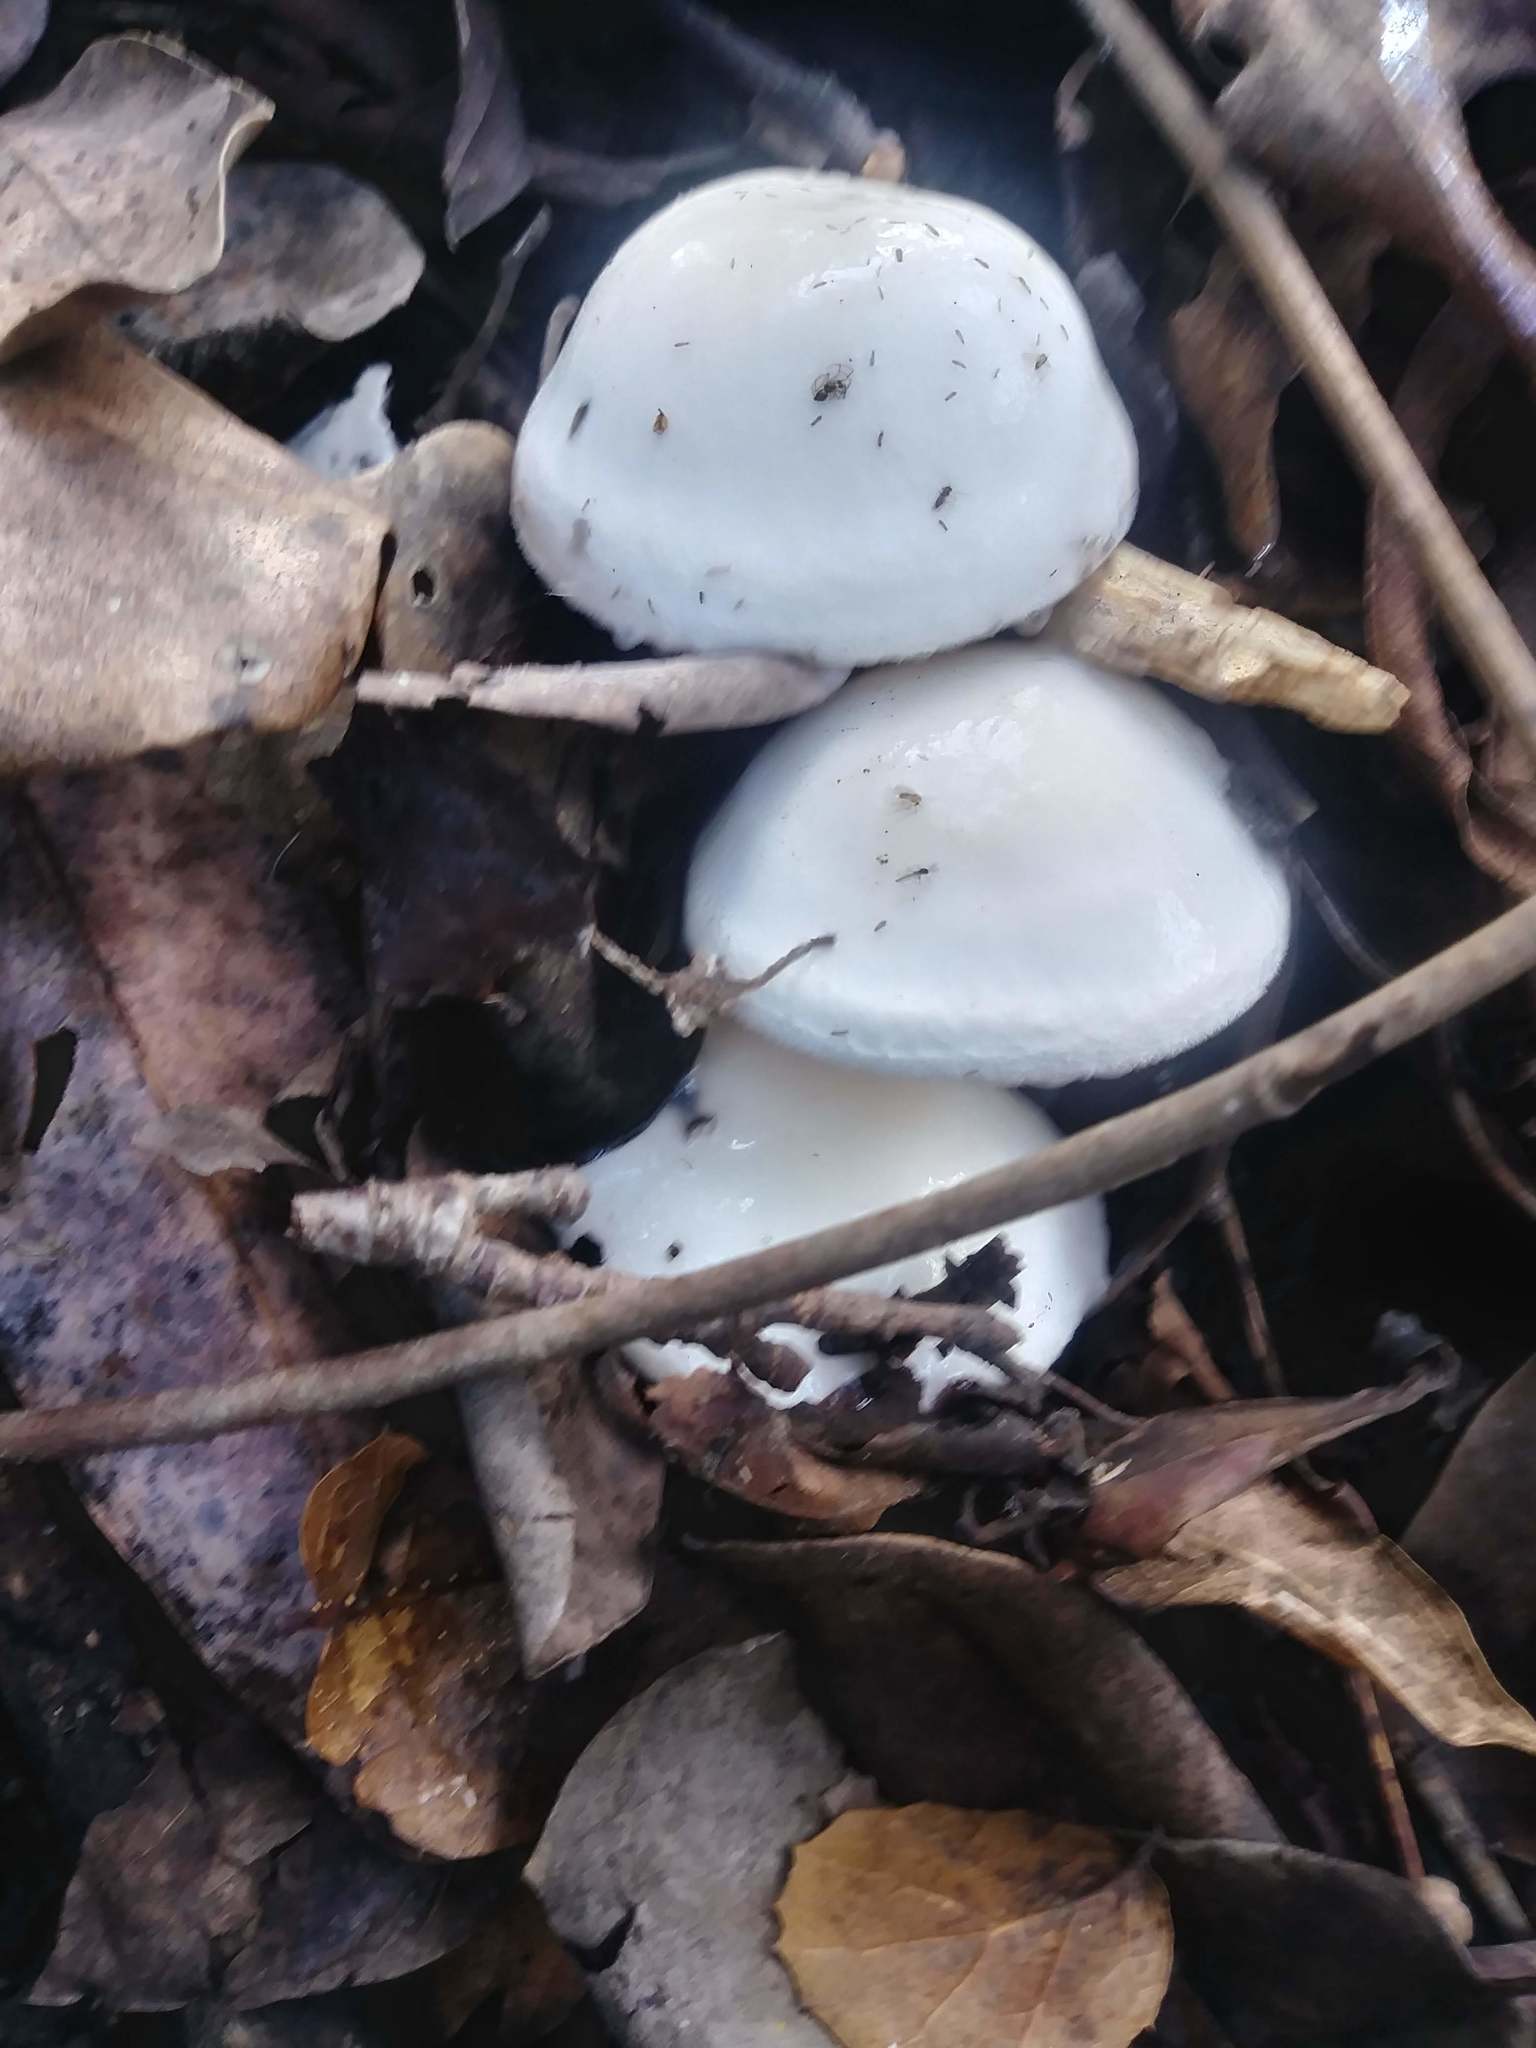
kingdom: Fungi
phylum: Basidiomycota
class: Agaricomycetes
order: Agaricales
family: Hygrophoraceae
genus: Hygrophorus
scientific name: Hygrophorus eburneus
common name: Ivory wax-cap
